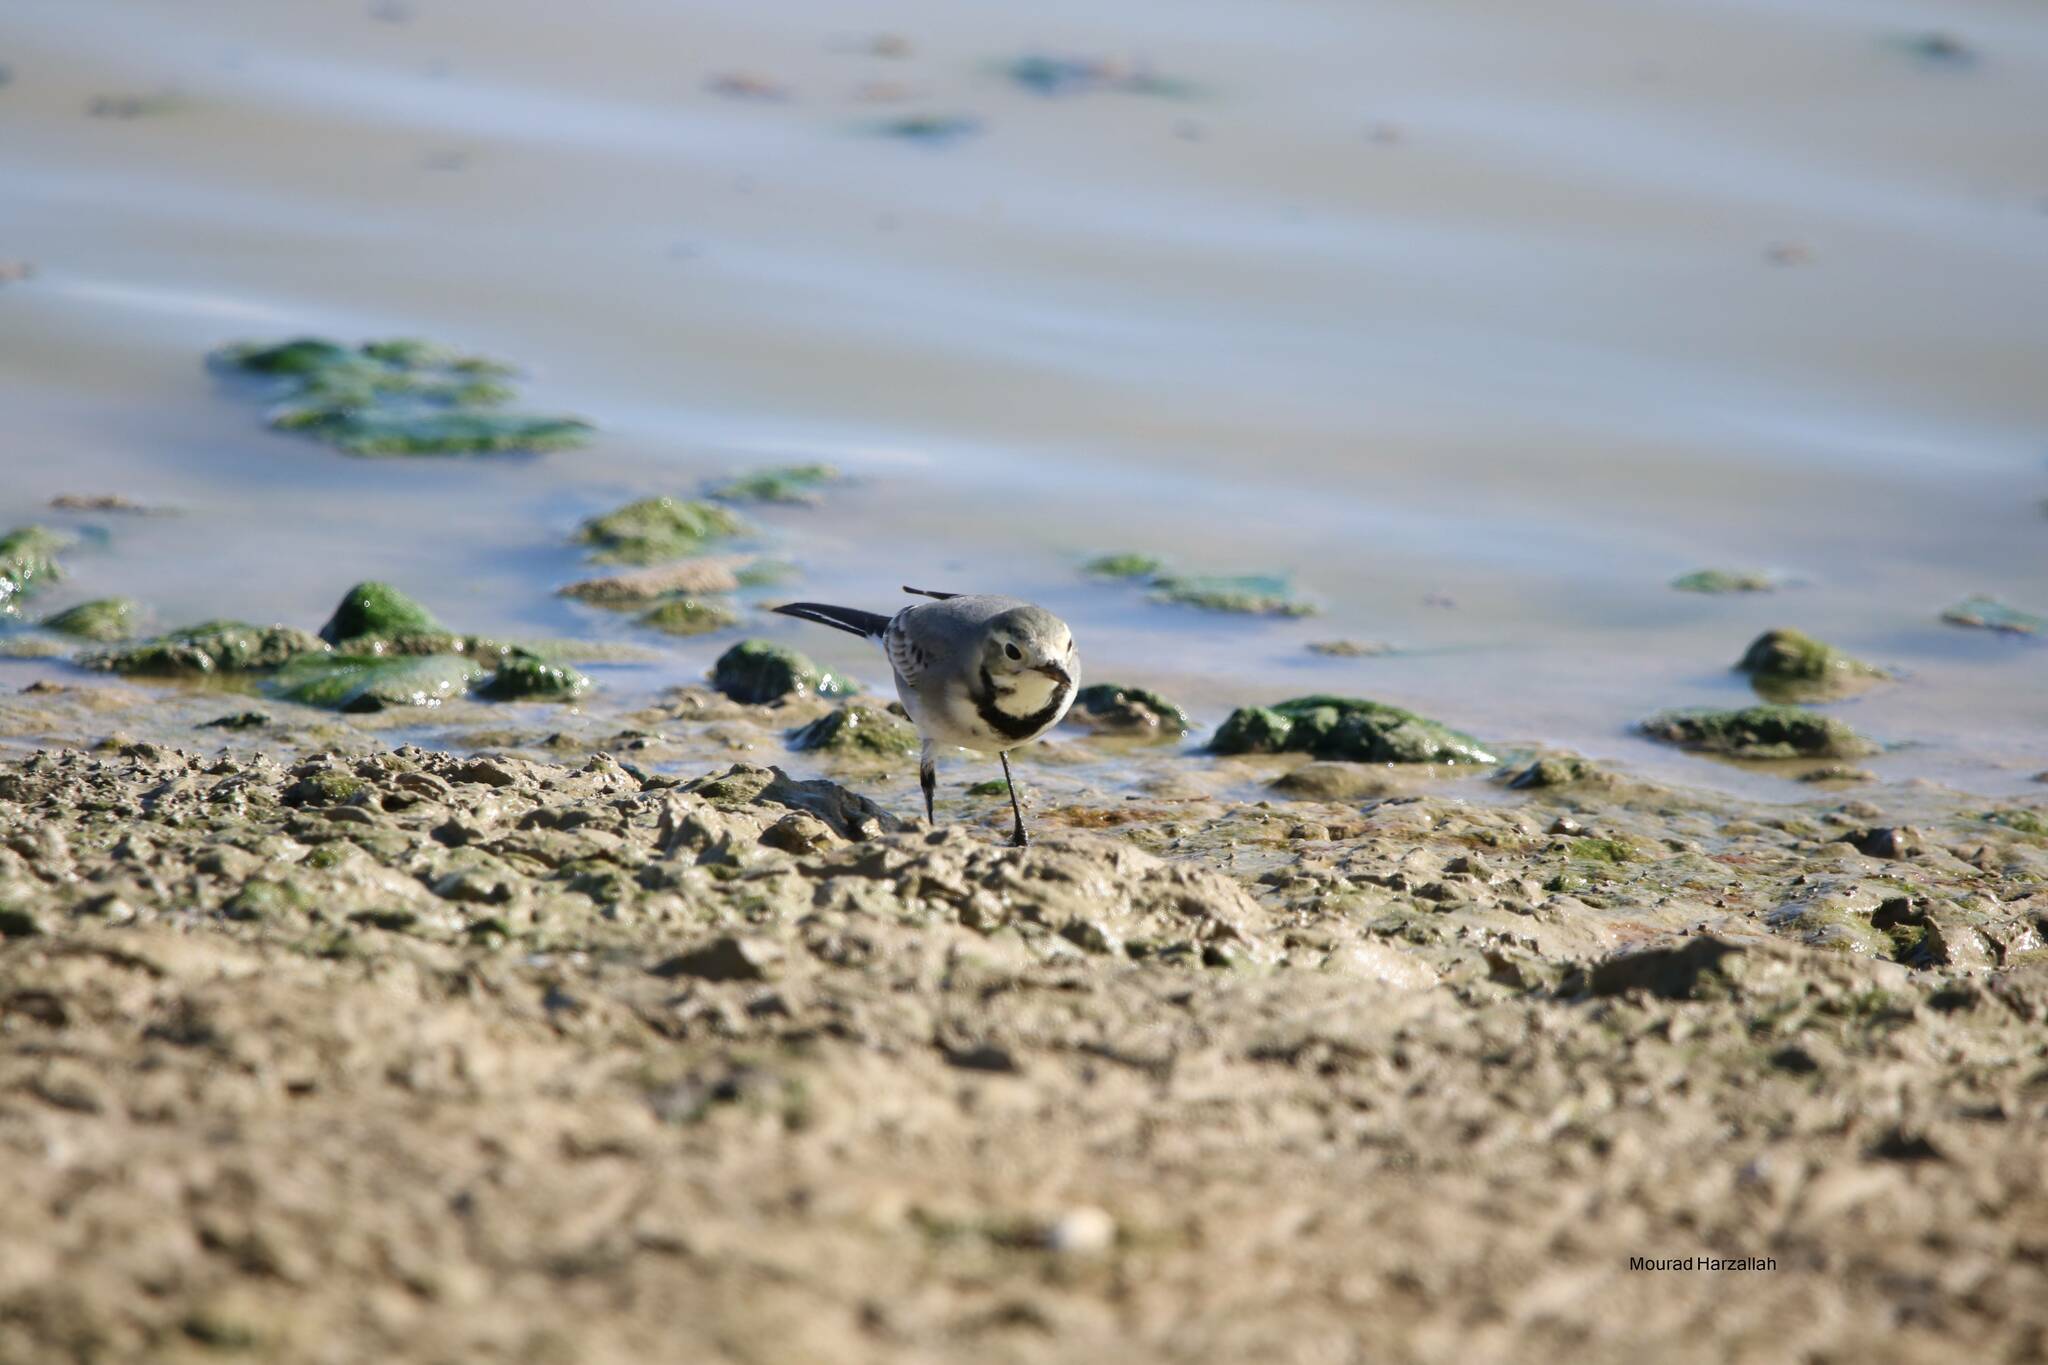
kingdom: Animalia
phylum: Chordata
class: Aves
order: Passeriformes
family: Motacillidae
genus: Motacilla
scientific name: Motacilla alba
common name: White wagtail
